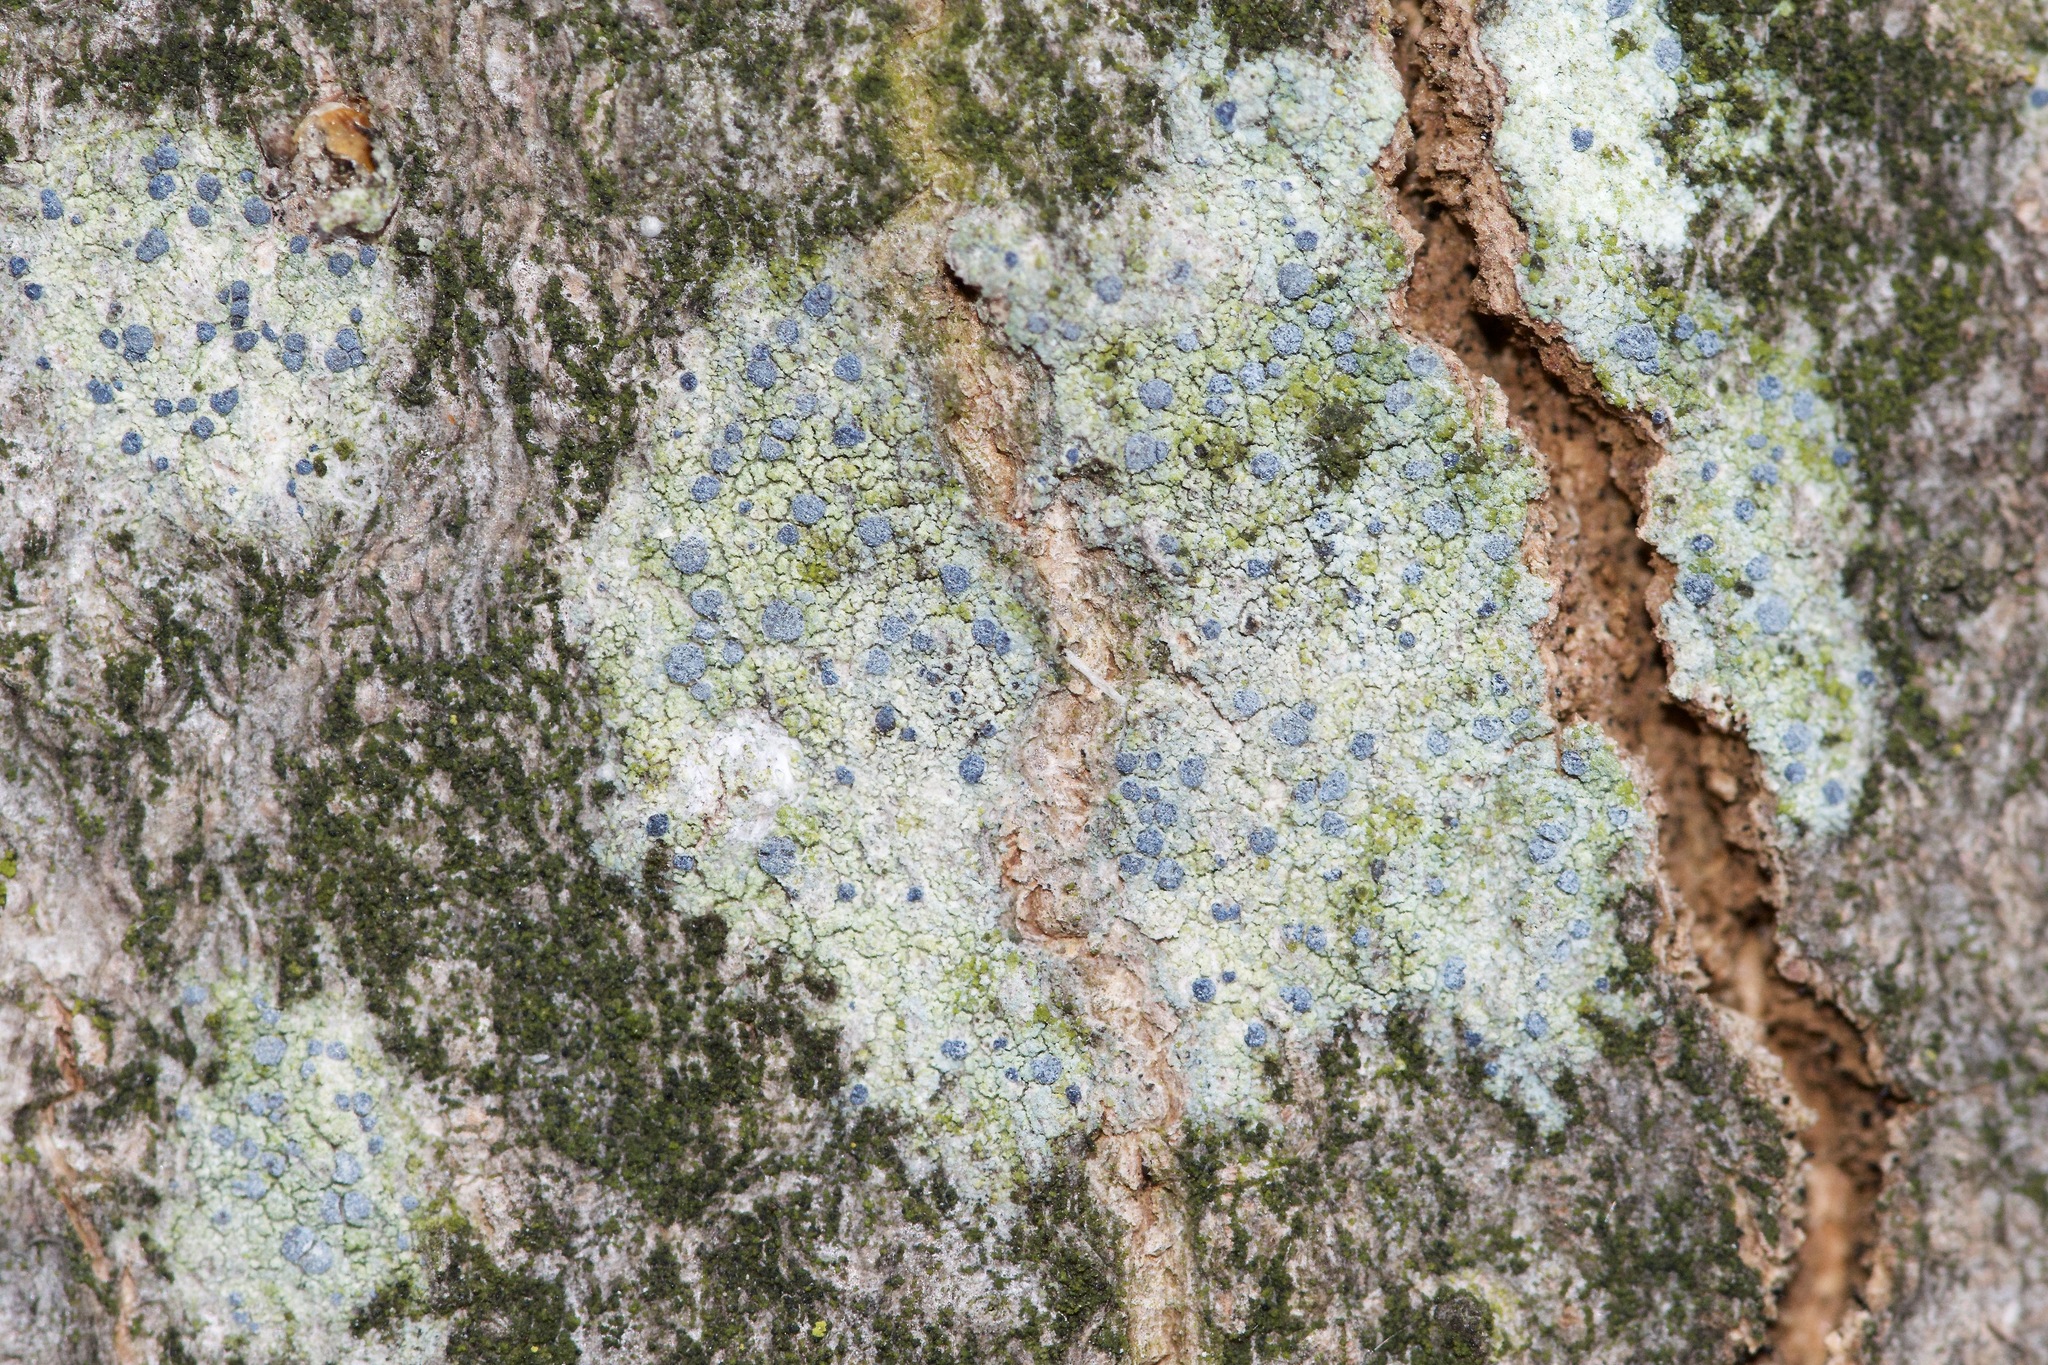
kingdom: Fungi
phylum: Ascomycota
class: Arthoniomycetes
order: Arthoniales
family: Chrysotrichaceae
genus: Chrysothrix
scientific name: Chrysothrix caesia
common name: Frosted comma lichen
